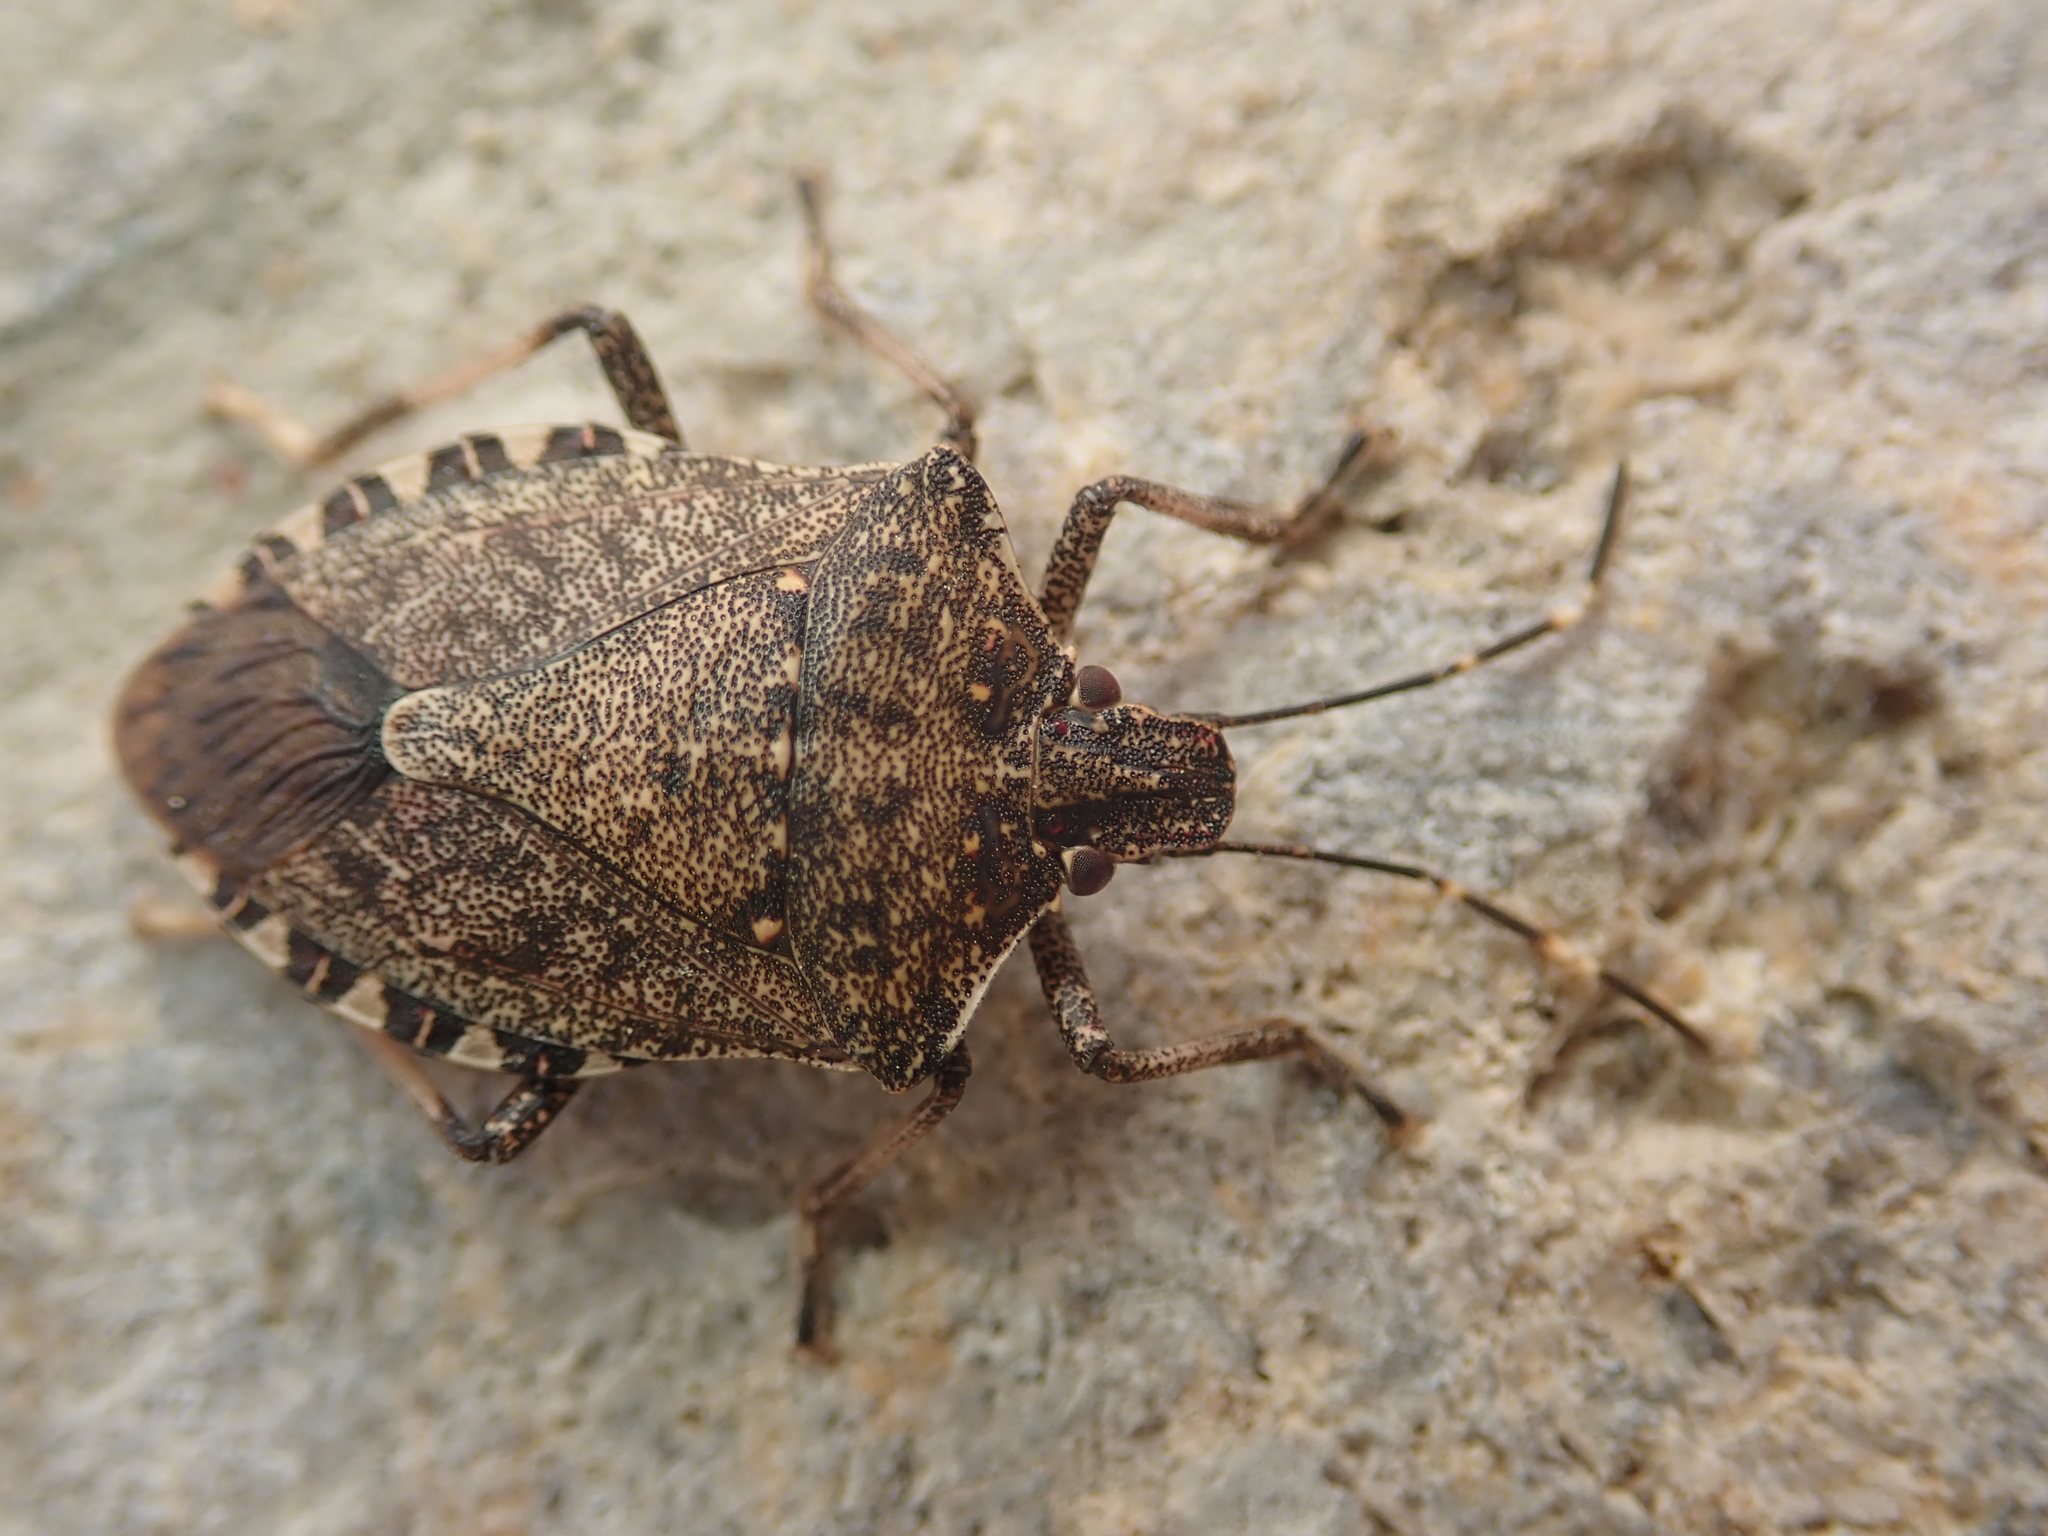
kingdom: Animalia
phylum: Arthropoda
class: Insecta
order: Hemiptera
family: Pentatomidae
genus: Halyomorpha
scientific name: Halyomorpha halys
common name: Brown marmorated stink bug
